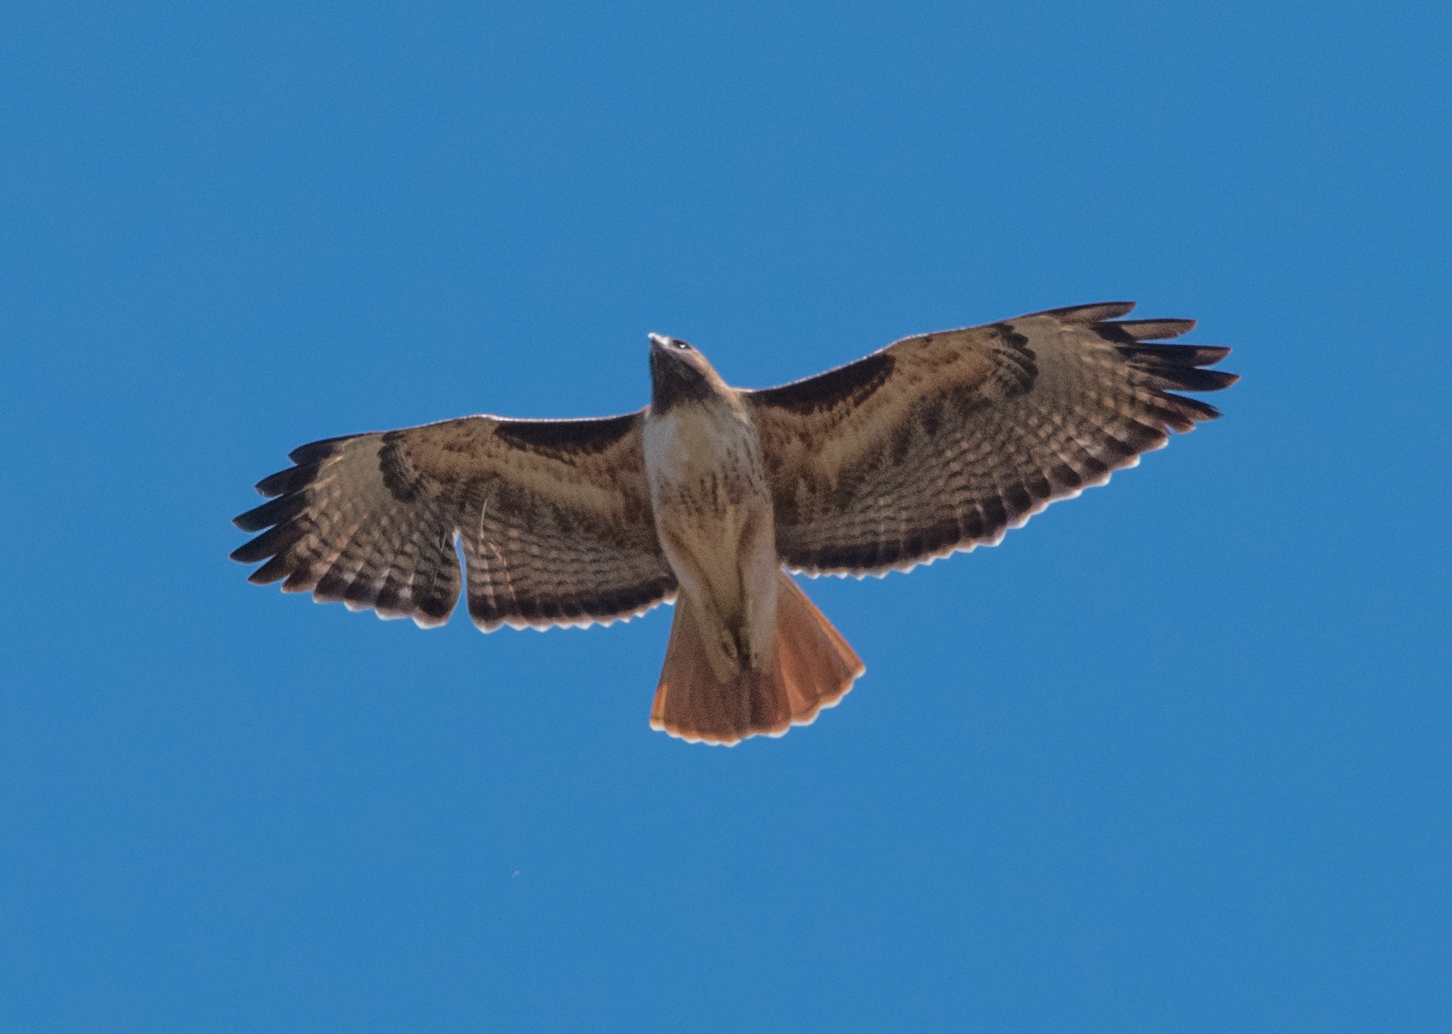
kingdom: Animalia
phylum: Chordata
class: Aves
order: Accipitriformes
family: Accipitridae
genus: Buteo
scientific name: Buteo jamaicensis
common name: Red-tailed hawk
